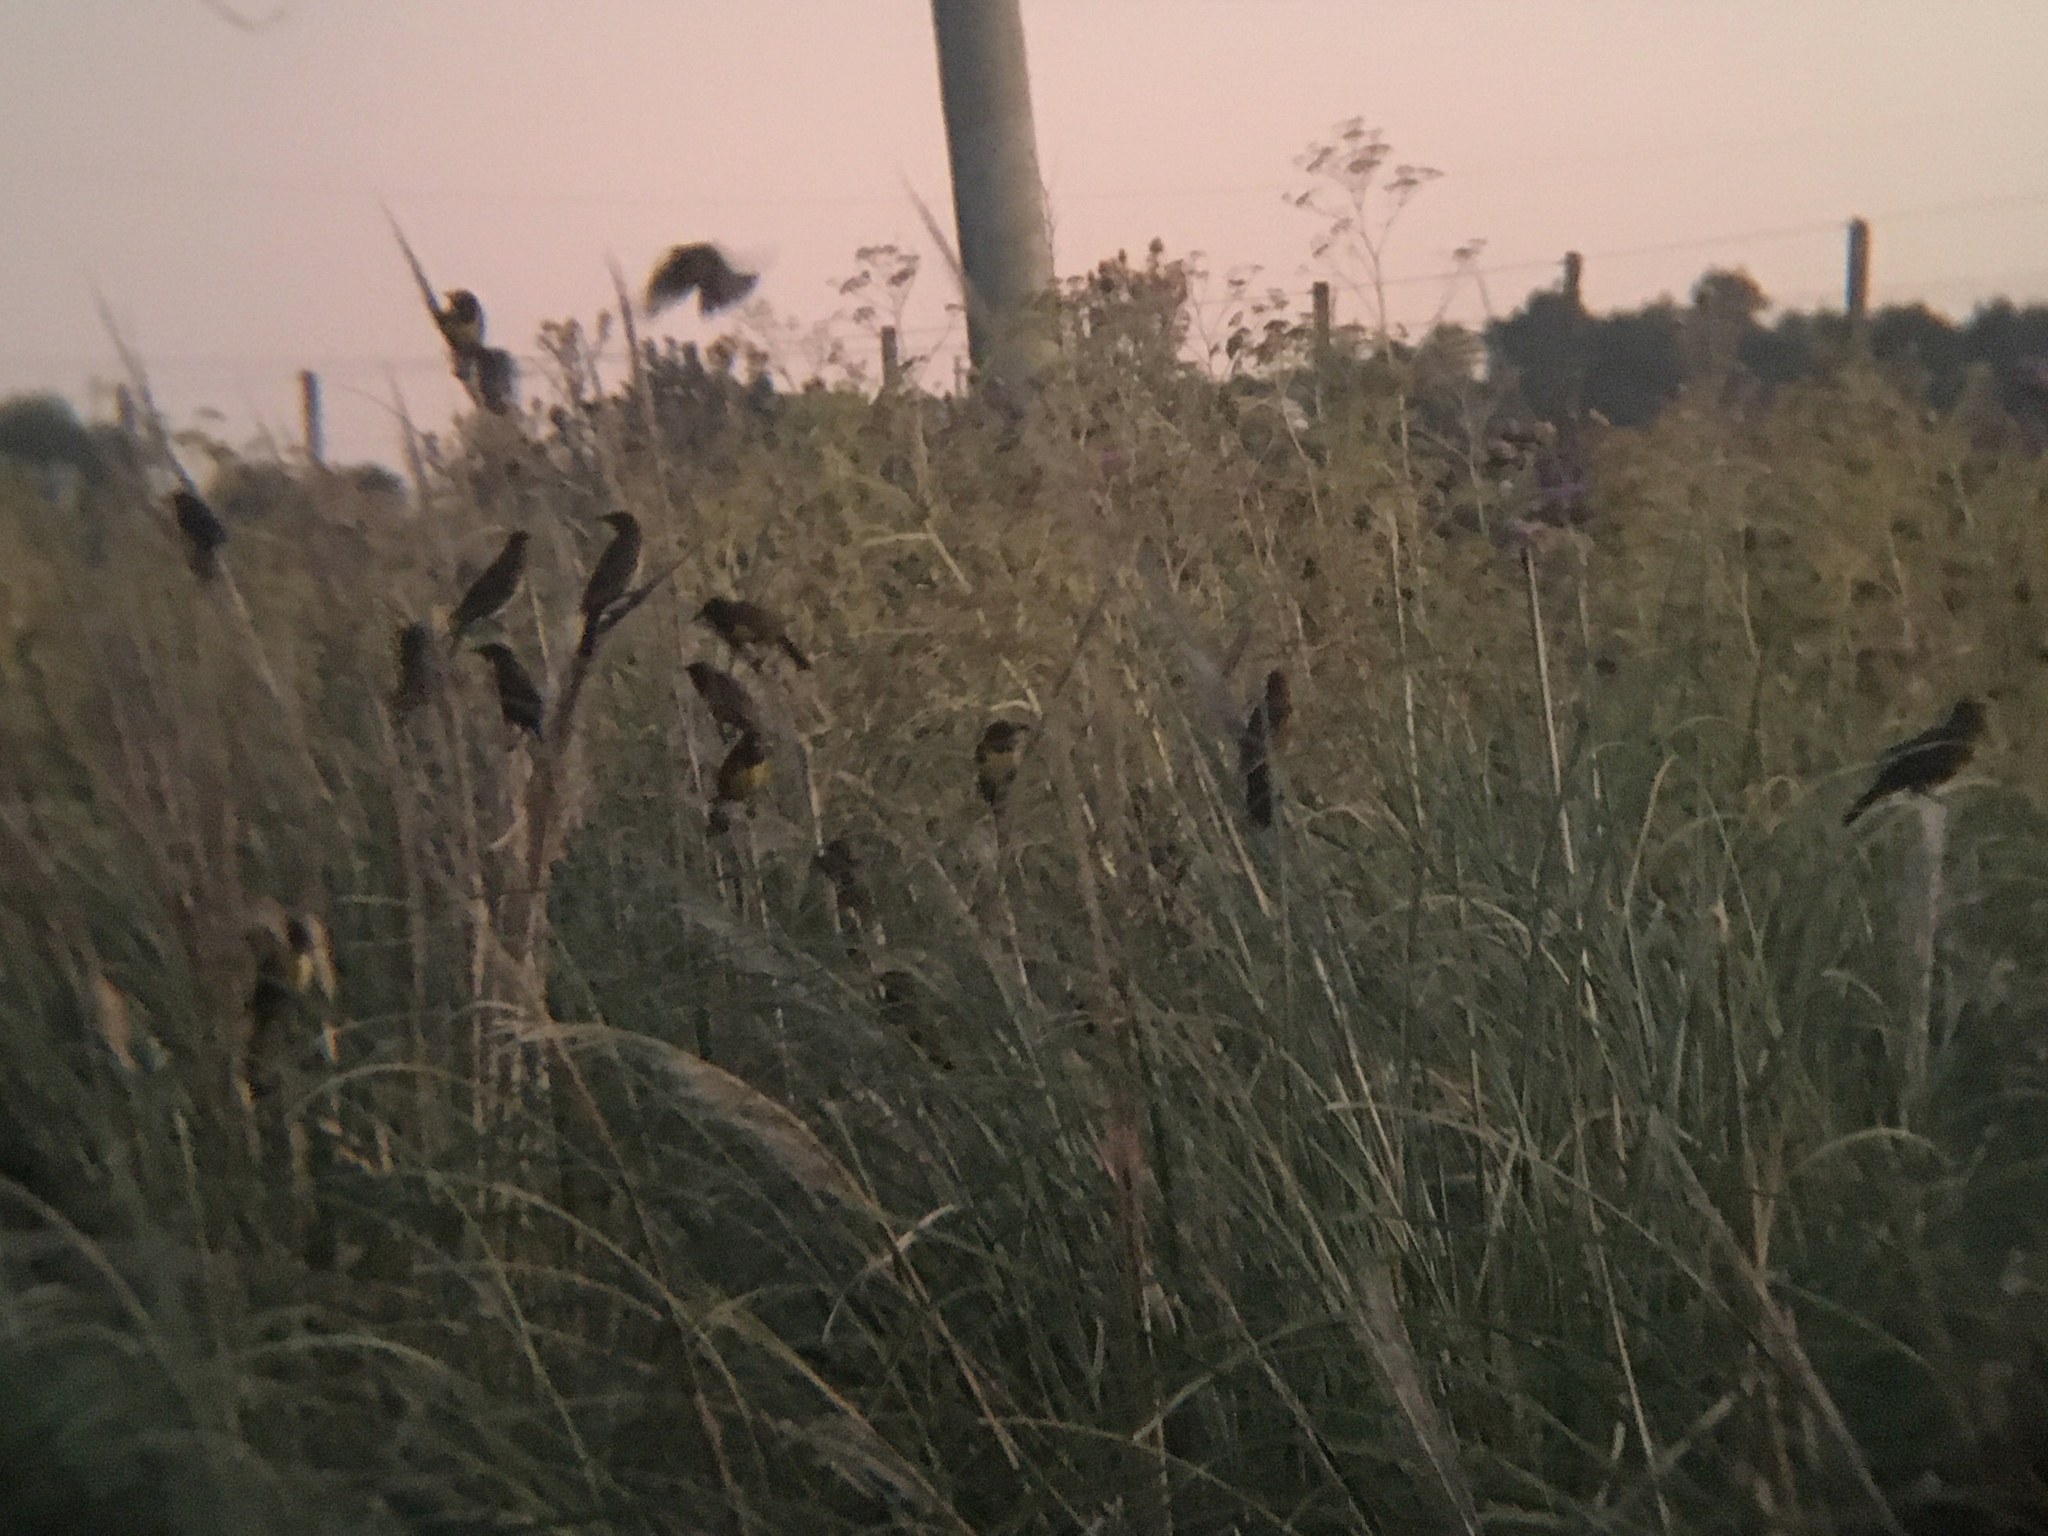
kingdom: Animalia
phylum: Chordata
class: Aves
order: Passeriformes
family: Icteridae
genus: Pseudoleistes
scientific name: Pseudoleistes virescens
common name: Brown-and-yellow marshbird
